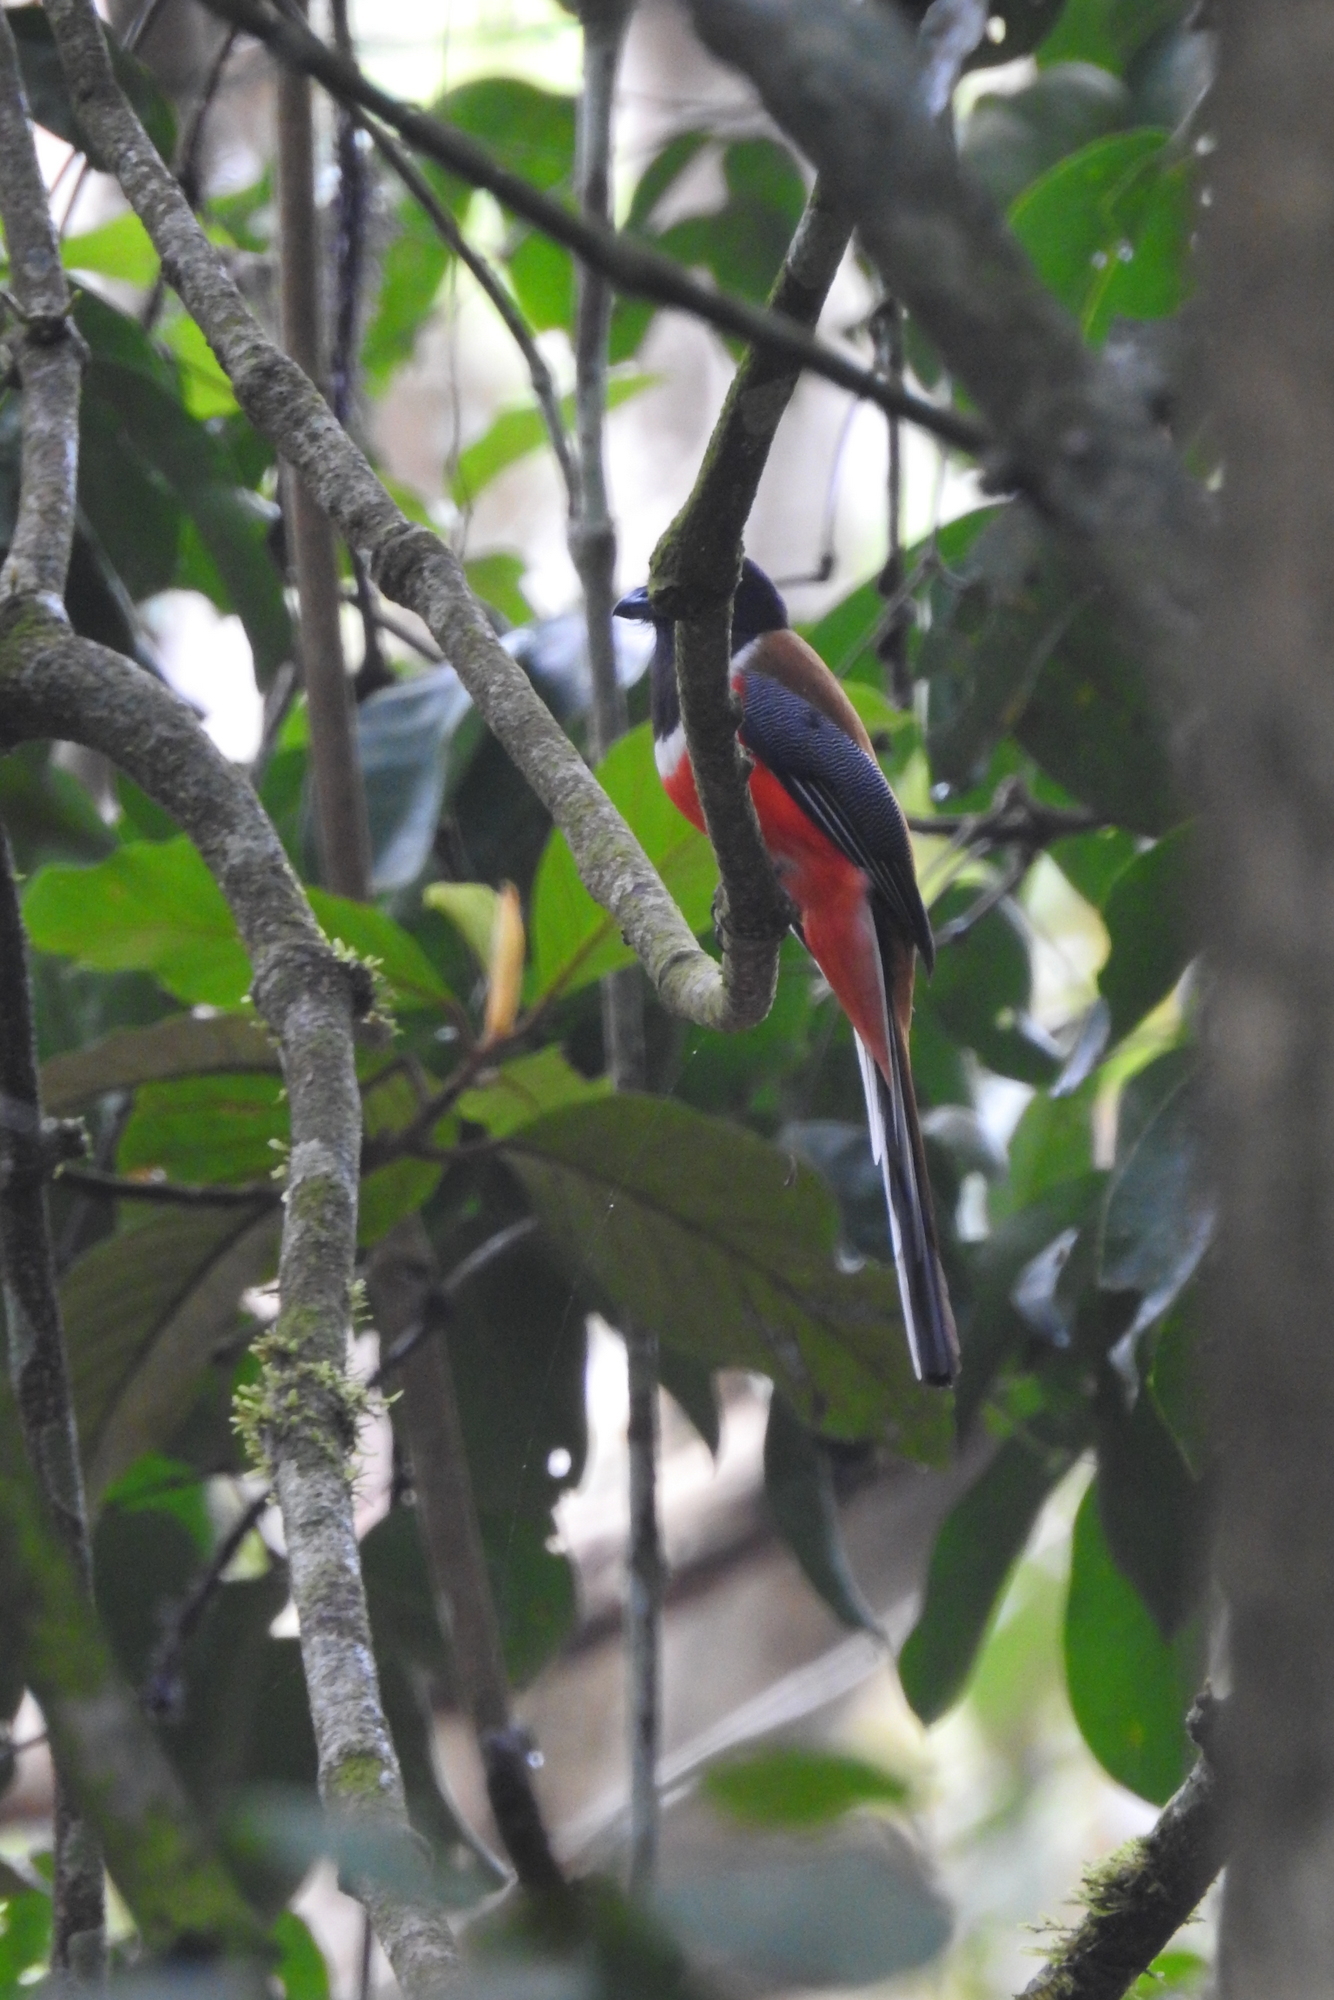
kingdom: Animalia
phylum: Chordata
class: Aves
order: Trogoniformes
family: Trogonidae
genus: Harpactes
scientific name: Harpactes fasciatus
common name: Malabar trogon
